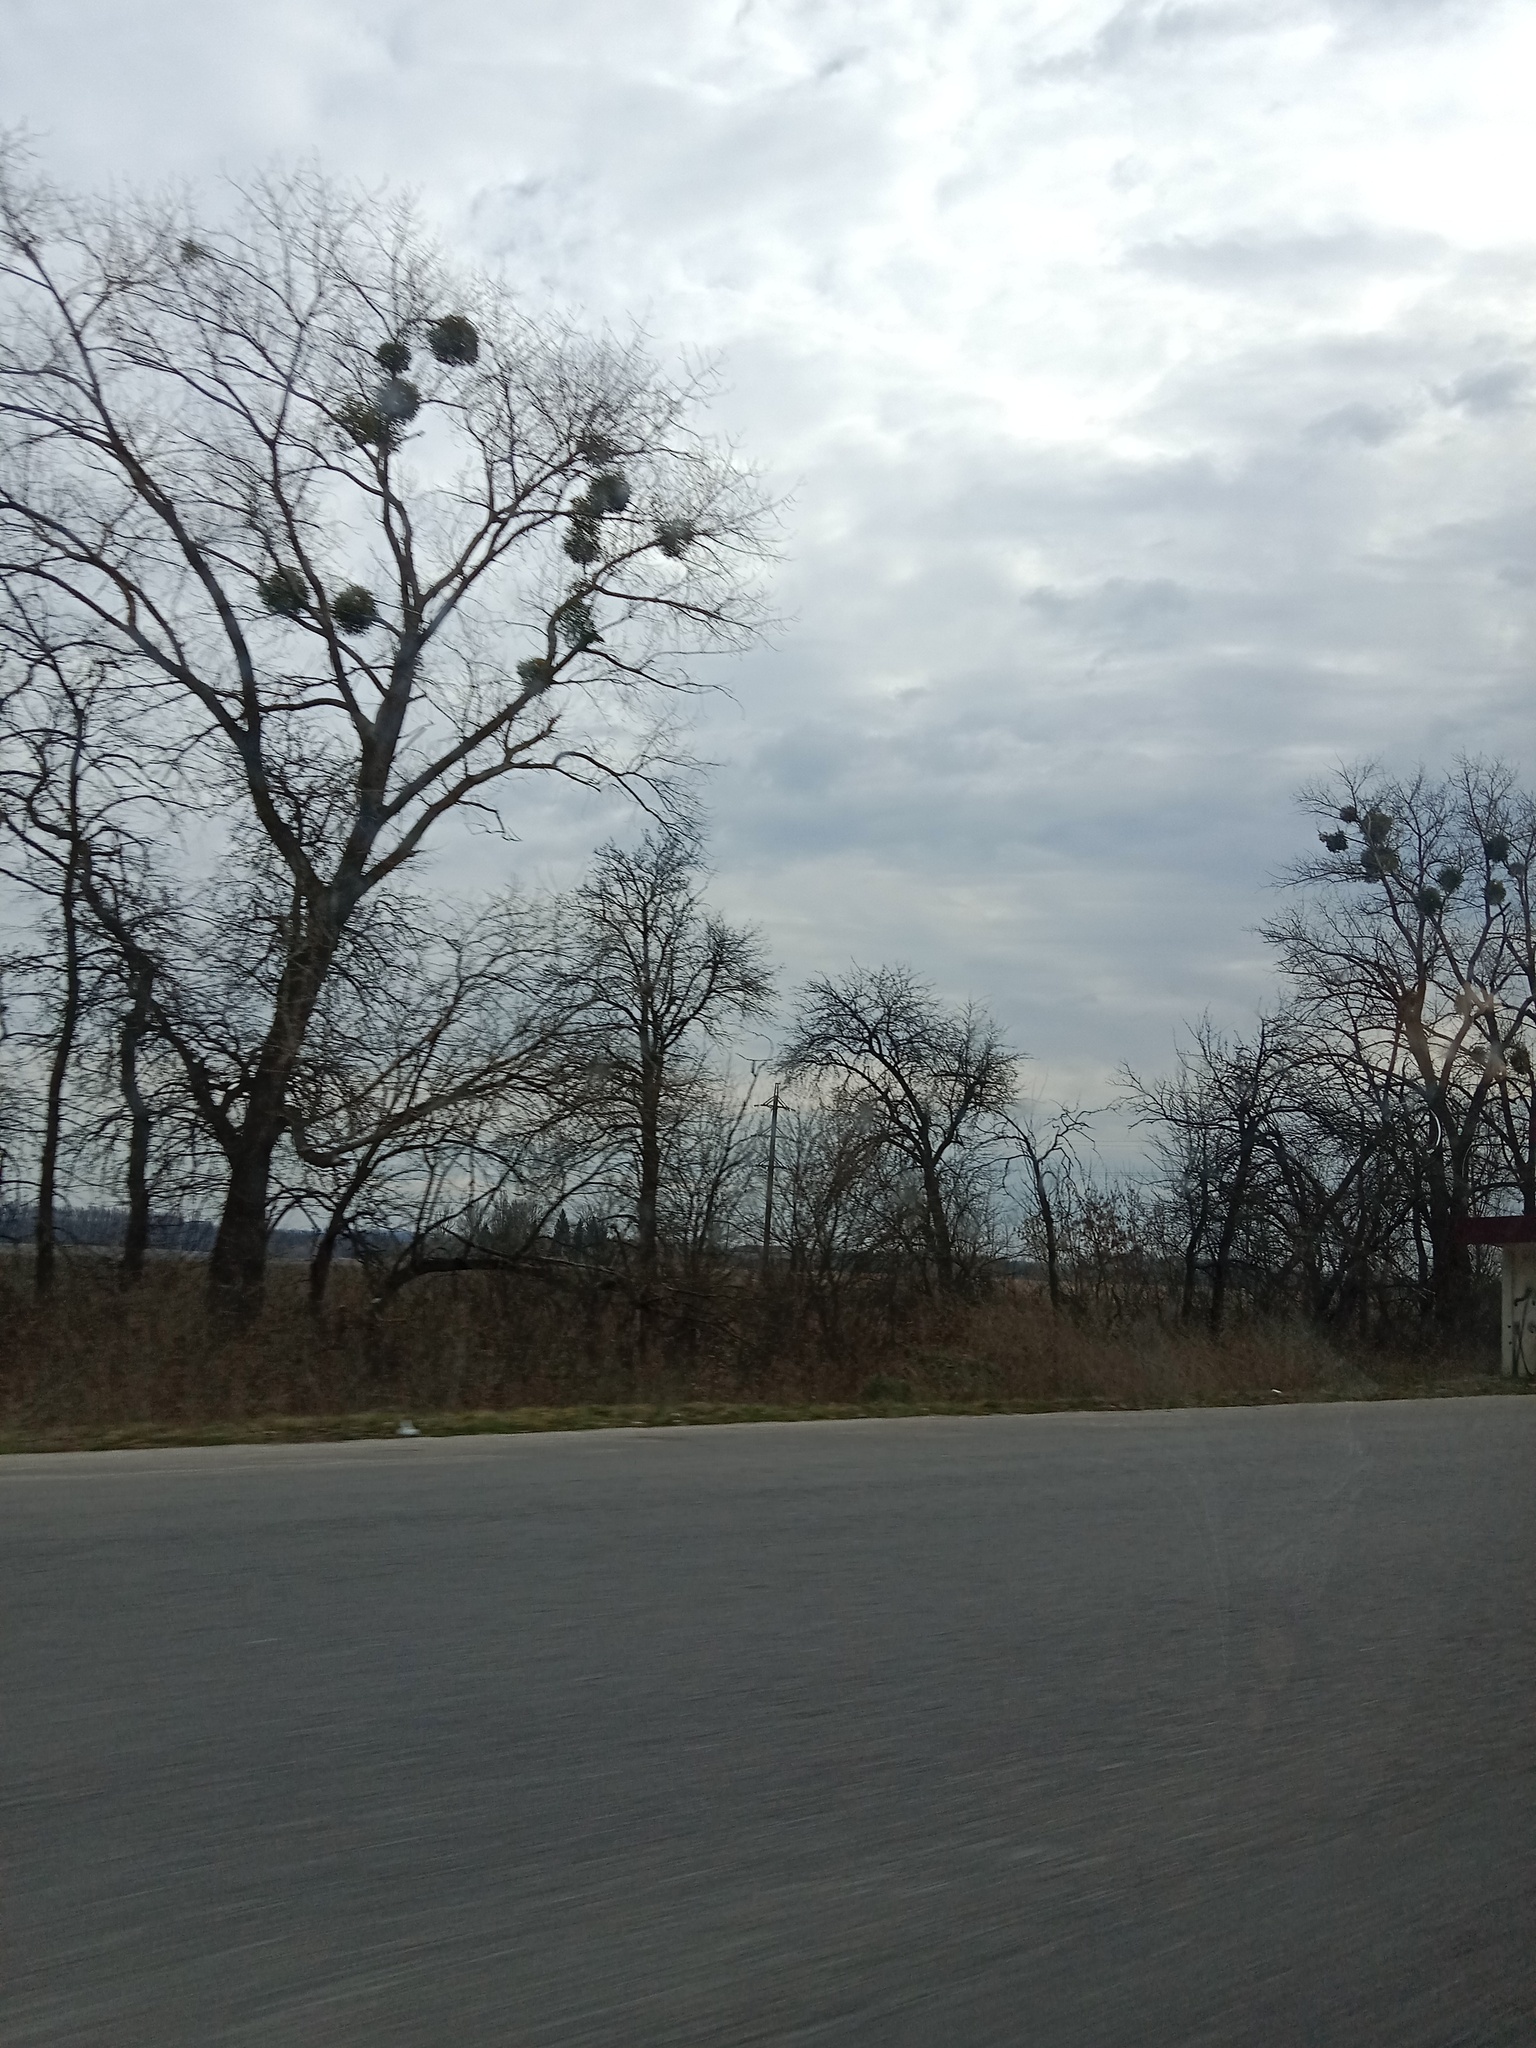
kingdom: Plantae
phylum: Tracheophyta
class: Magnoliopsida
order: Santalales
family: Viscaceae
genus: Viscum
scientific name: Viscum album
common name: Mistletoe
